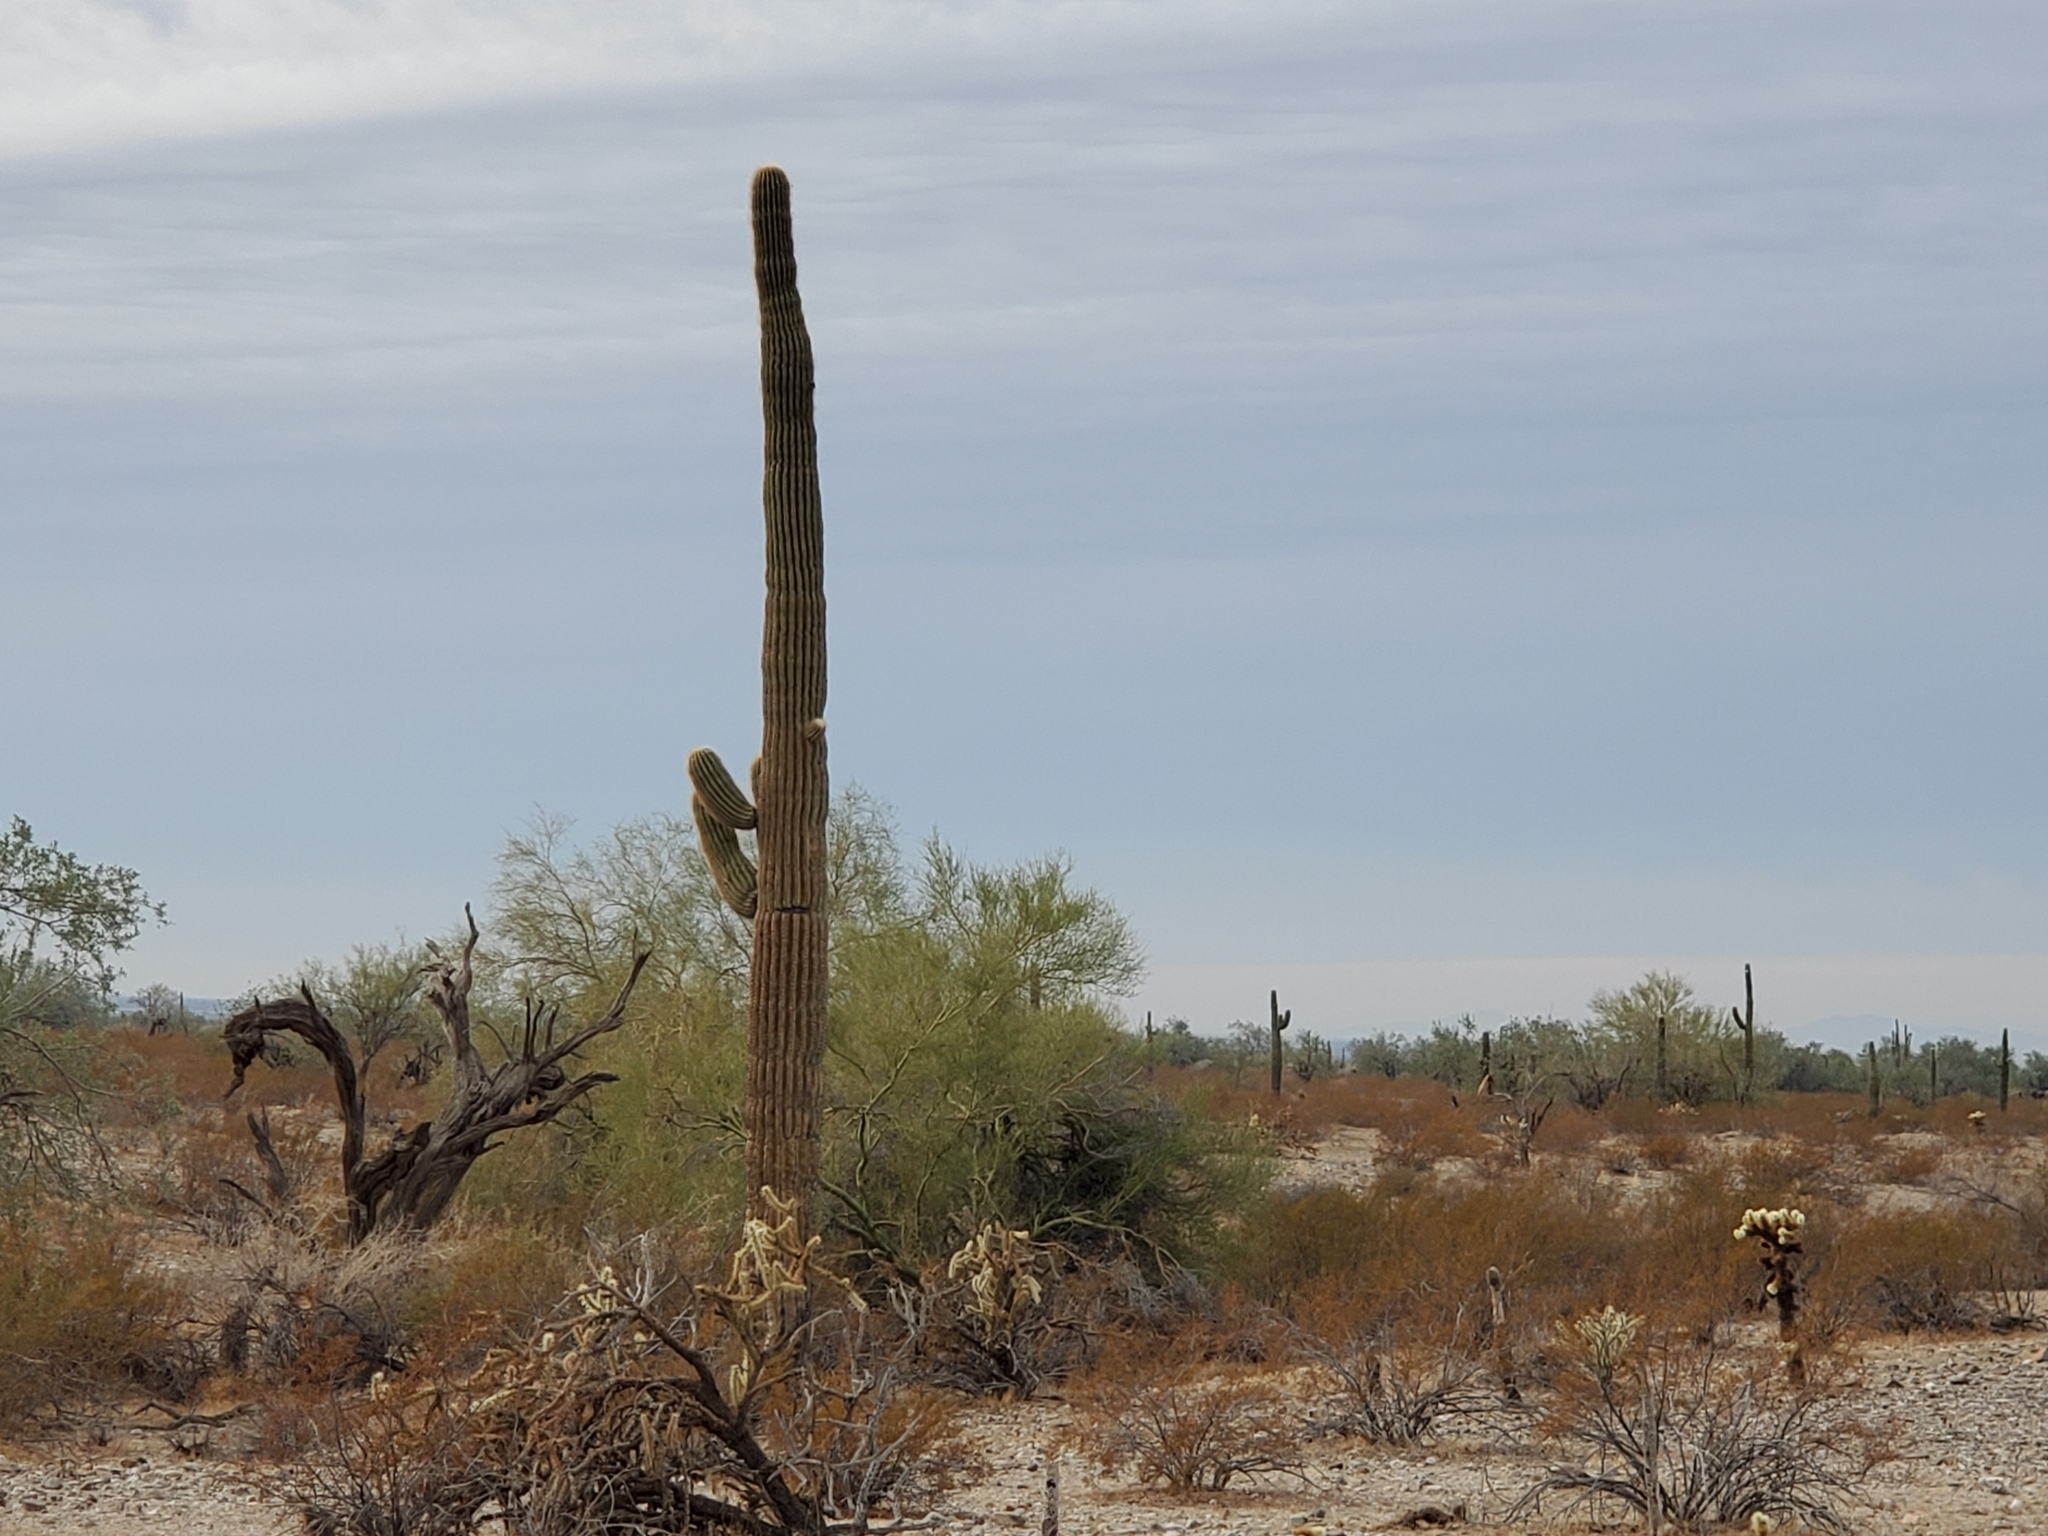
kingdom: Plantae
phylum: Tracheophyta
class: Magnoliopsida
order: Caryophyllales
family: Cactaceae
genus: Carnegiea
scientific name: Carnegiea gigantea
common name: Saguaro
